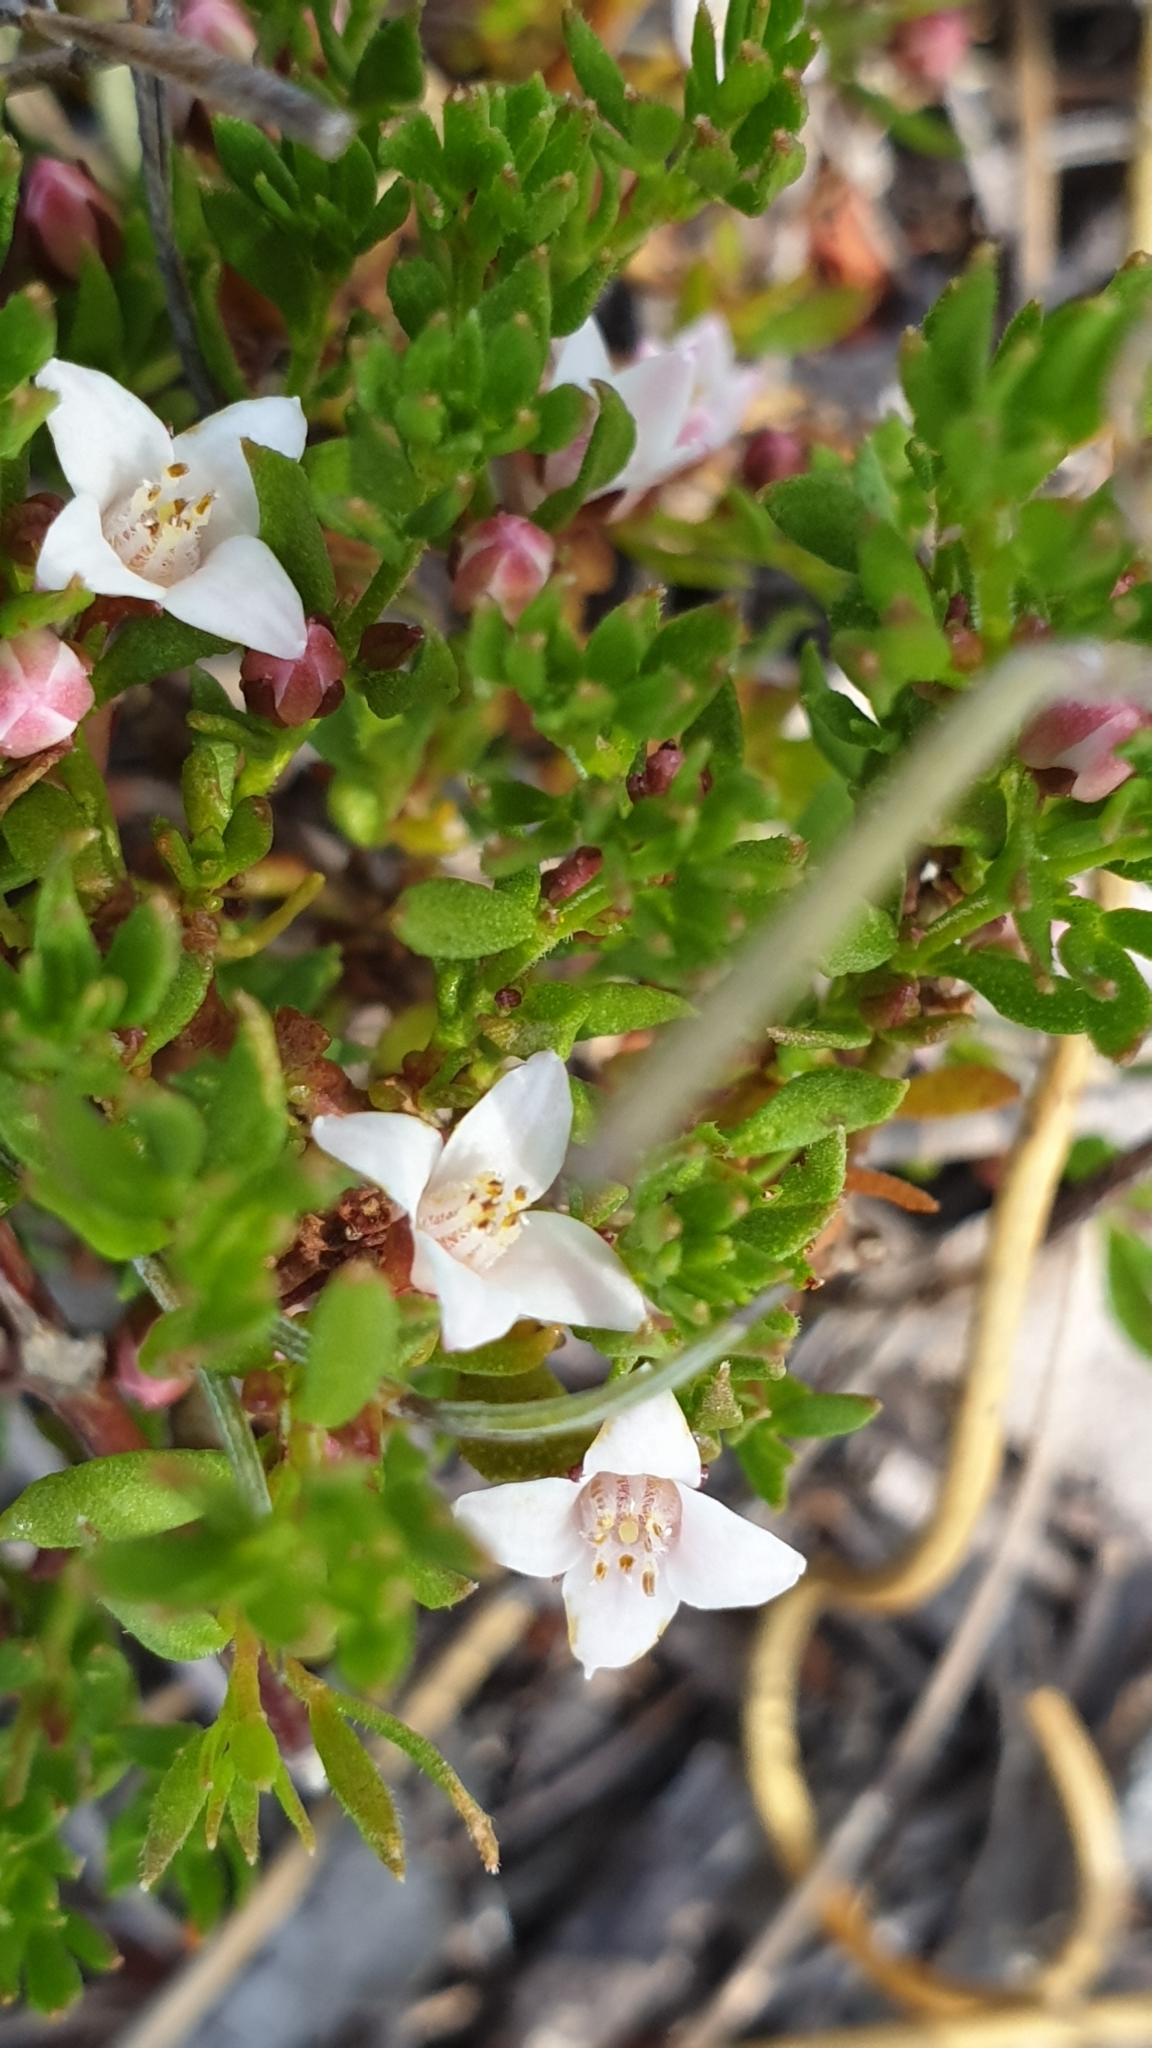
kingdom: Plantae
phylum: Tracheophyta
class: Magnoliopsida
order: Sapindales
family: Rutaceae
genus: Cyanothamnus
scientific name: Cyanothamnus nanus
